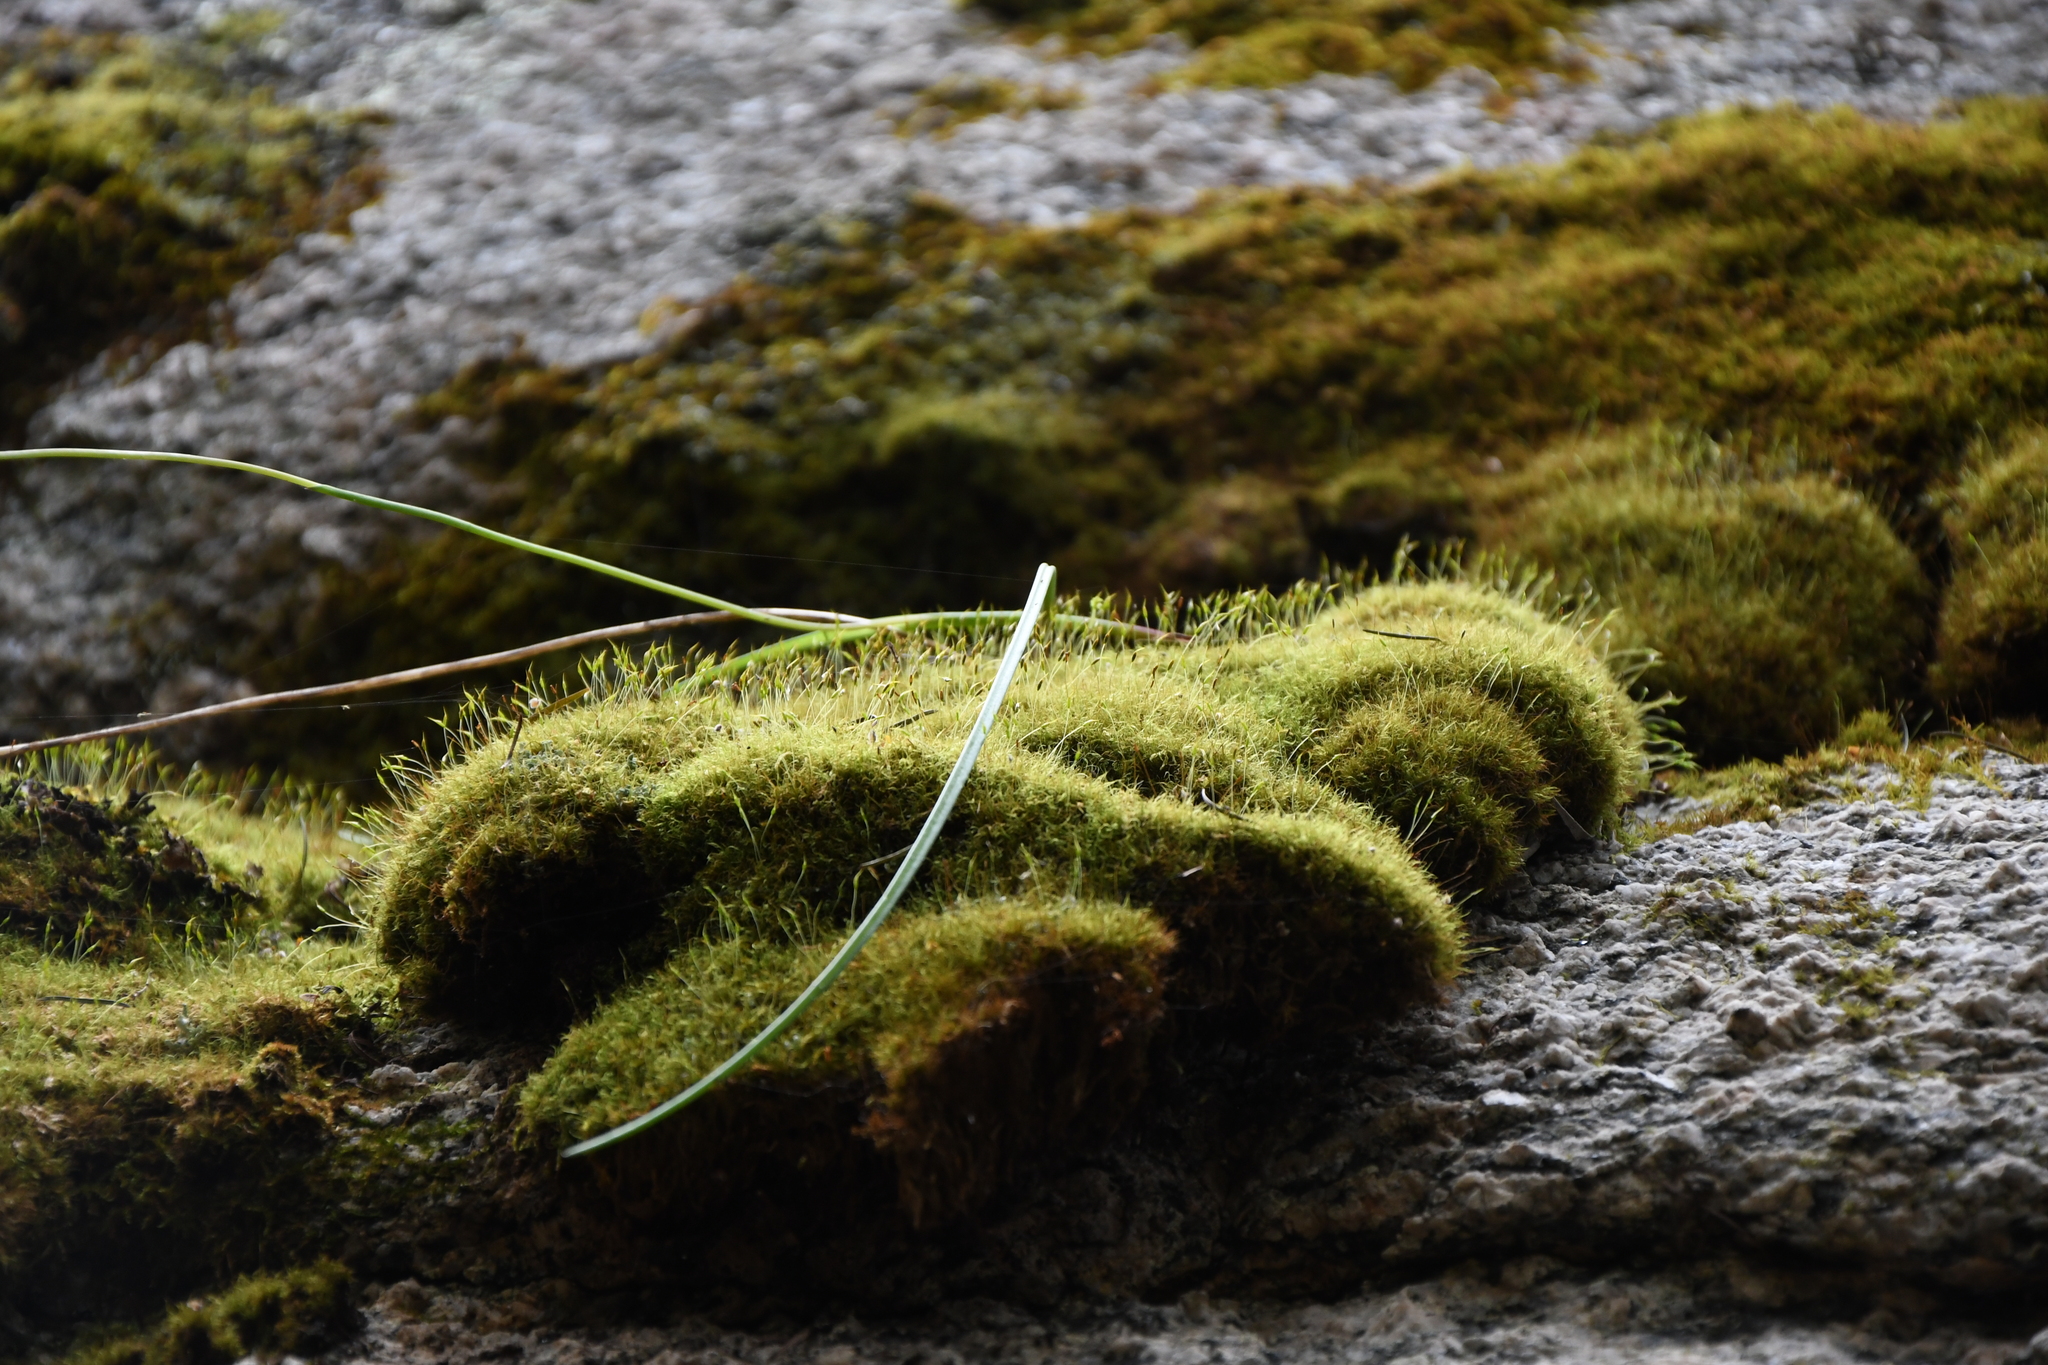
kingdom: Plantae
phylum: Bryophyta
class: Bryopsida
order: Dicranales
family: Dicranaceae
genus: Dicranoloma
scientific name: Dicranoloma diaphanoneuron
